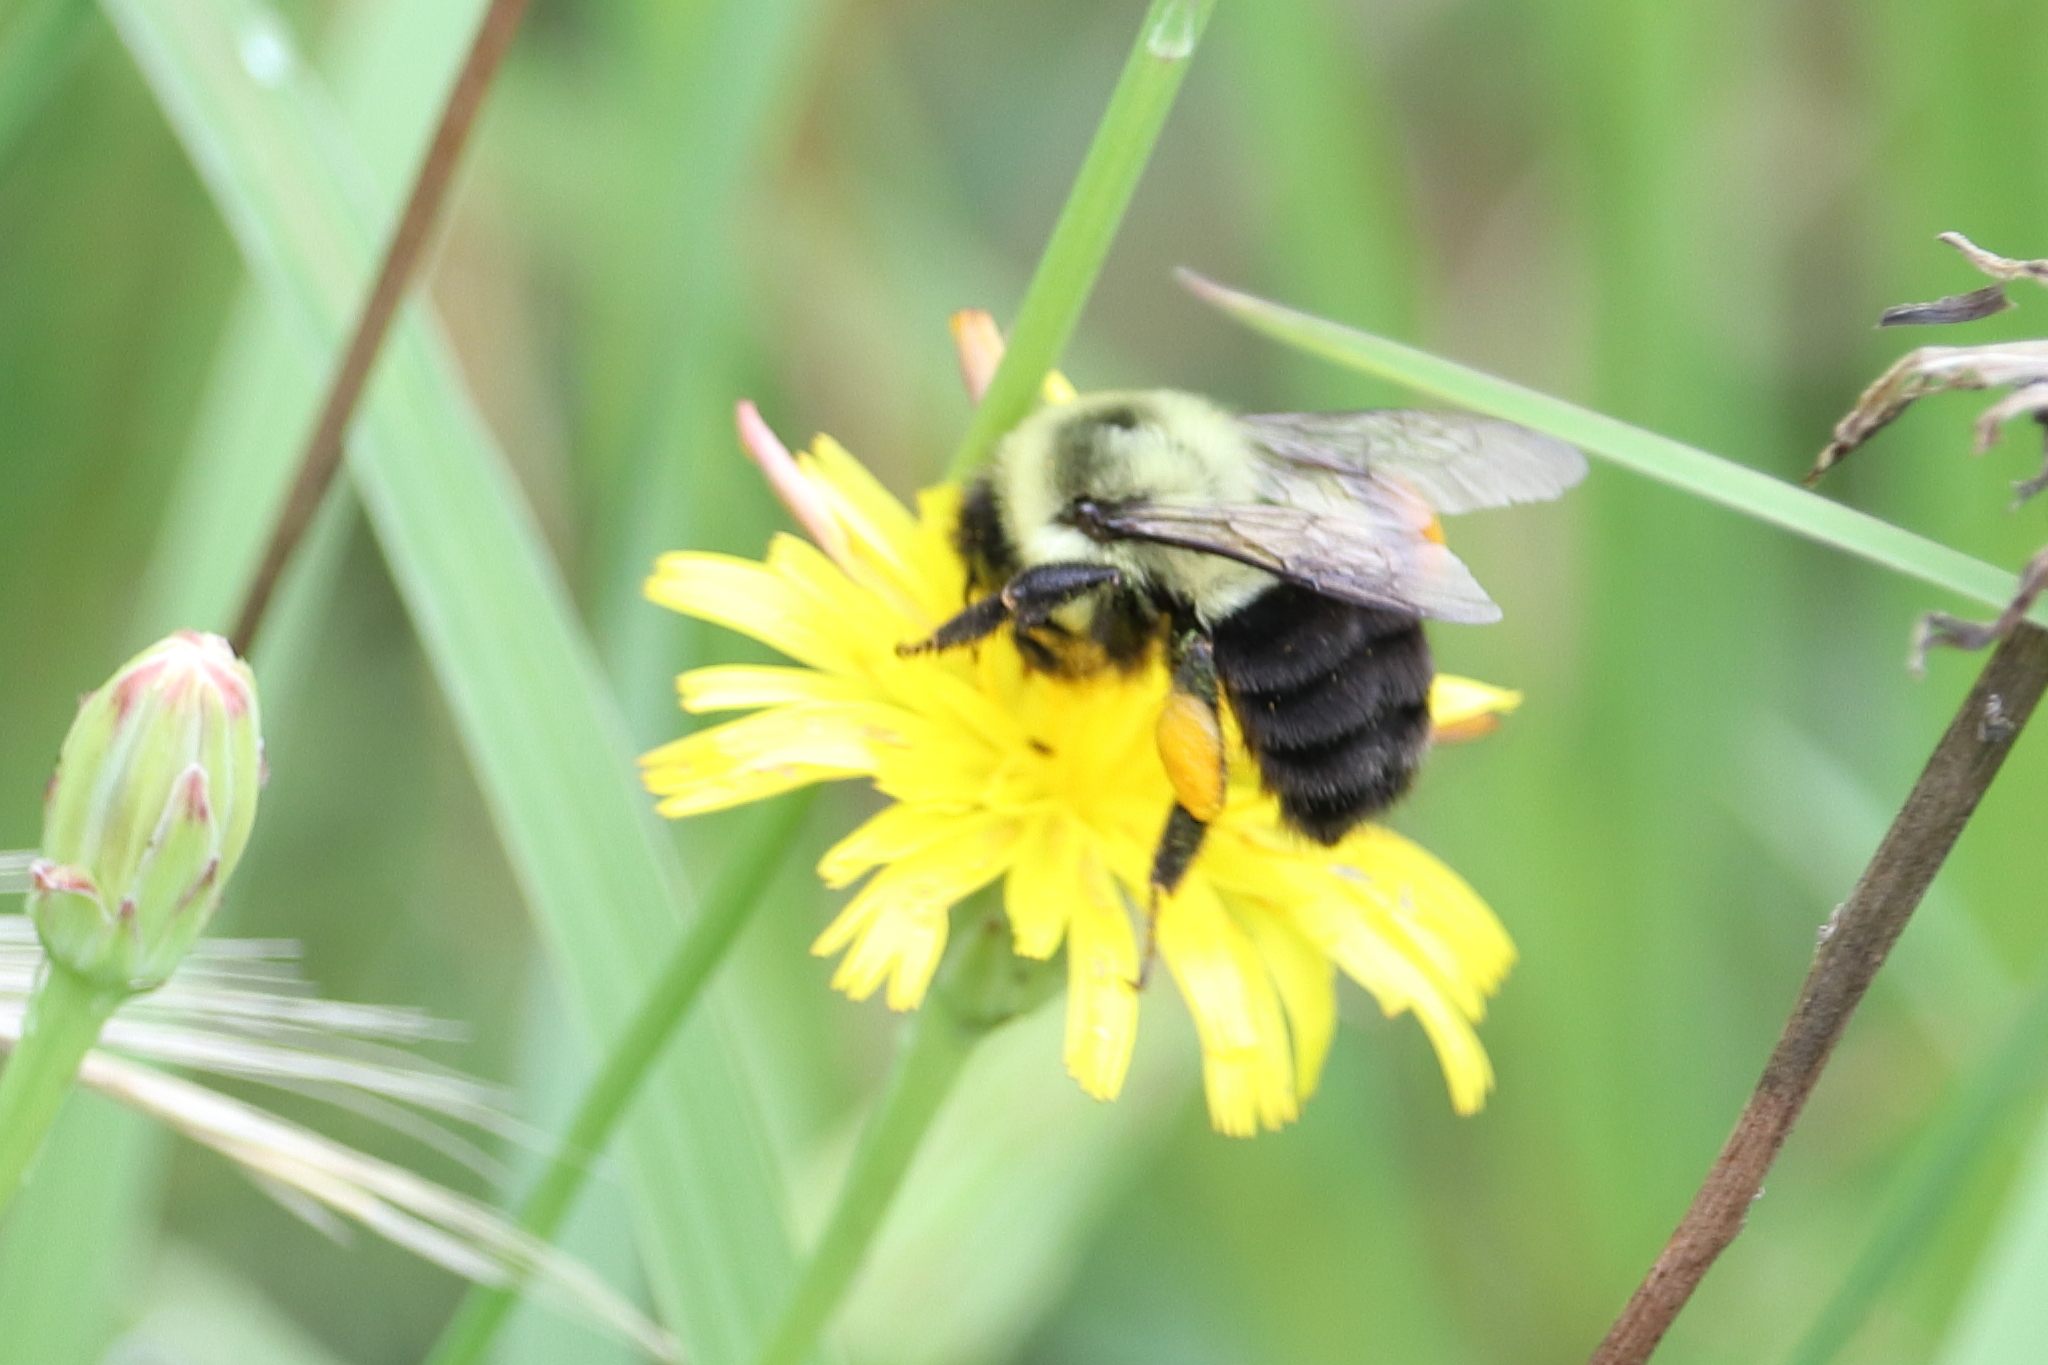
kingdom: Animalia
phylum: Arthropoda
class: Insecta
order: Hymenoptera
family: Apidae
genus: Bombus
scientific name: Bombus impatiens
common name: Common eastern bumble bee
